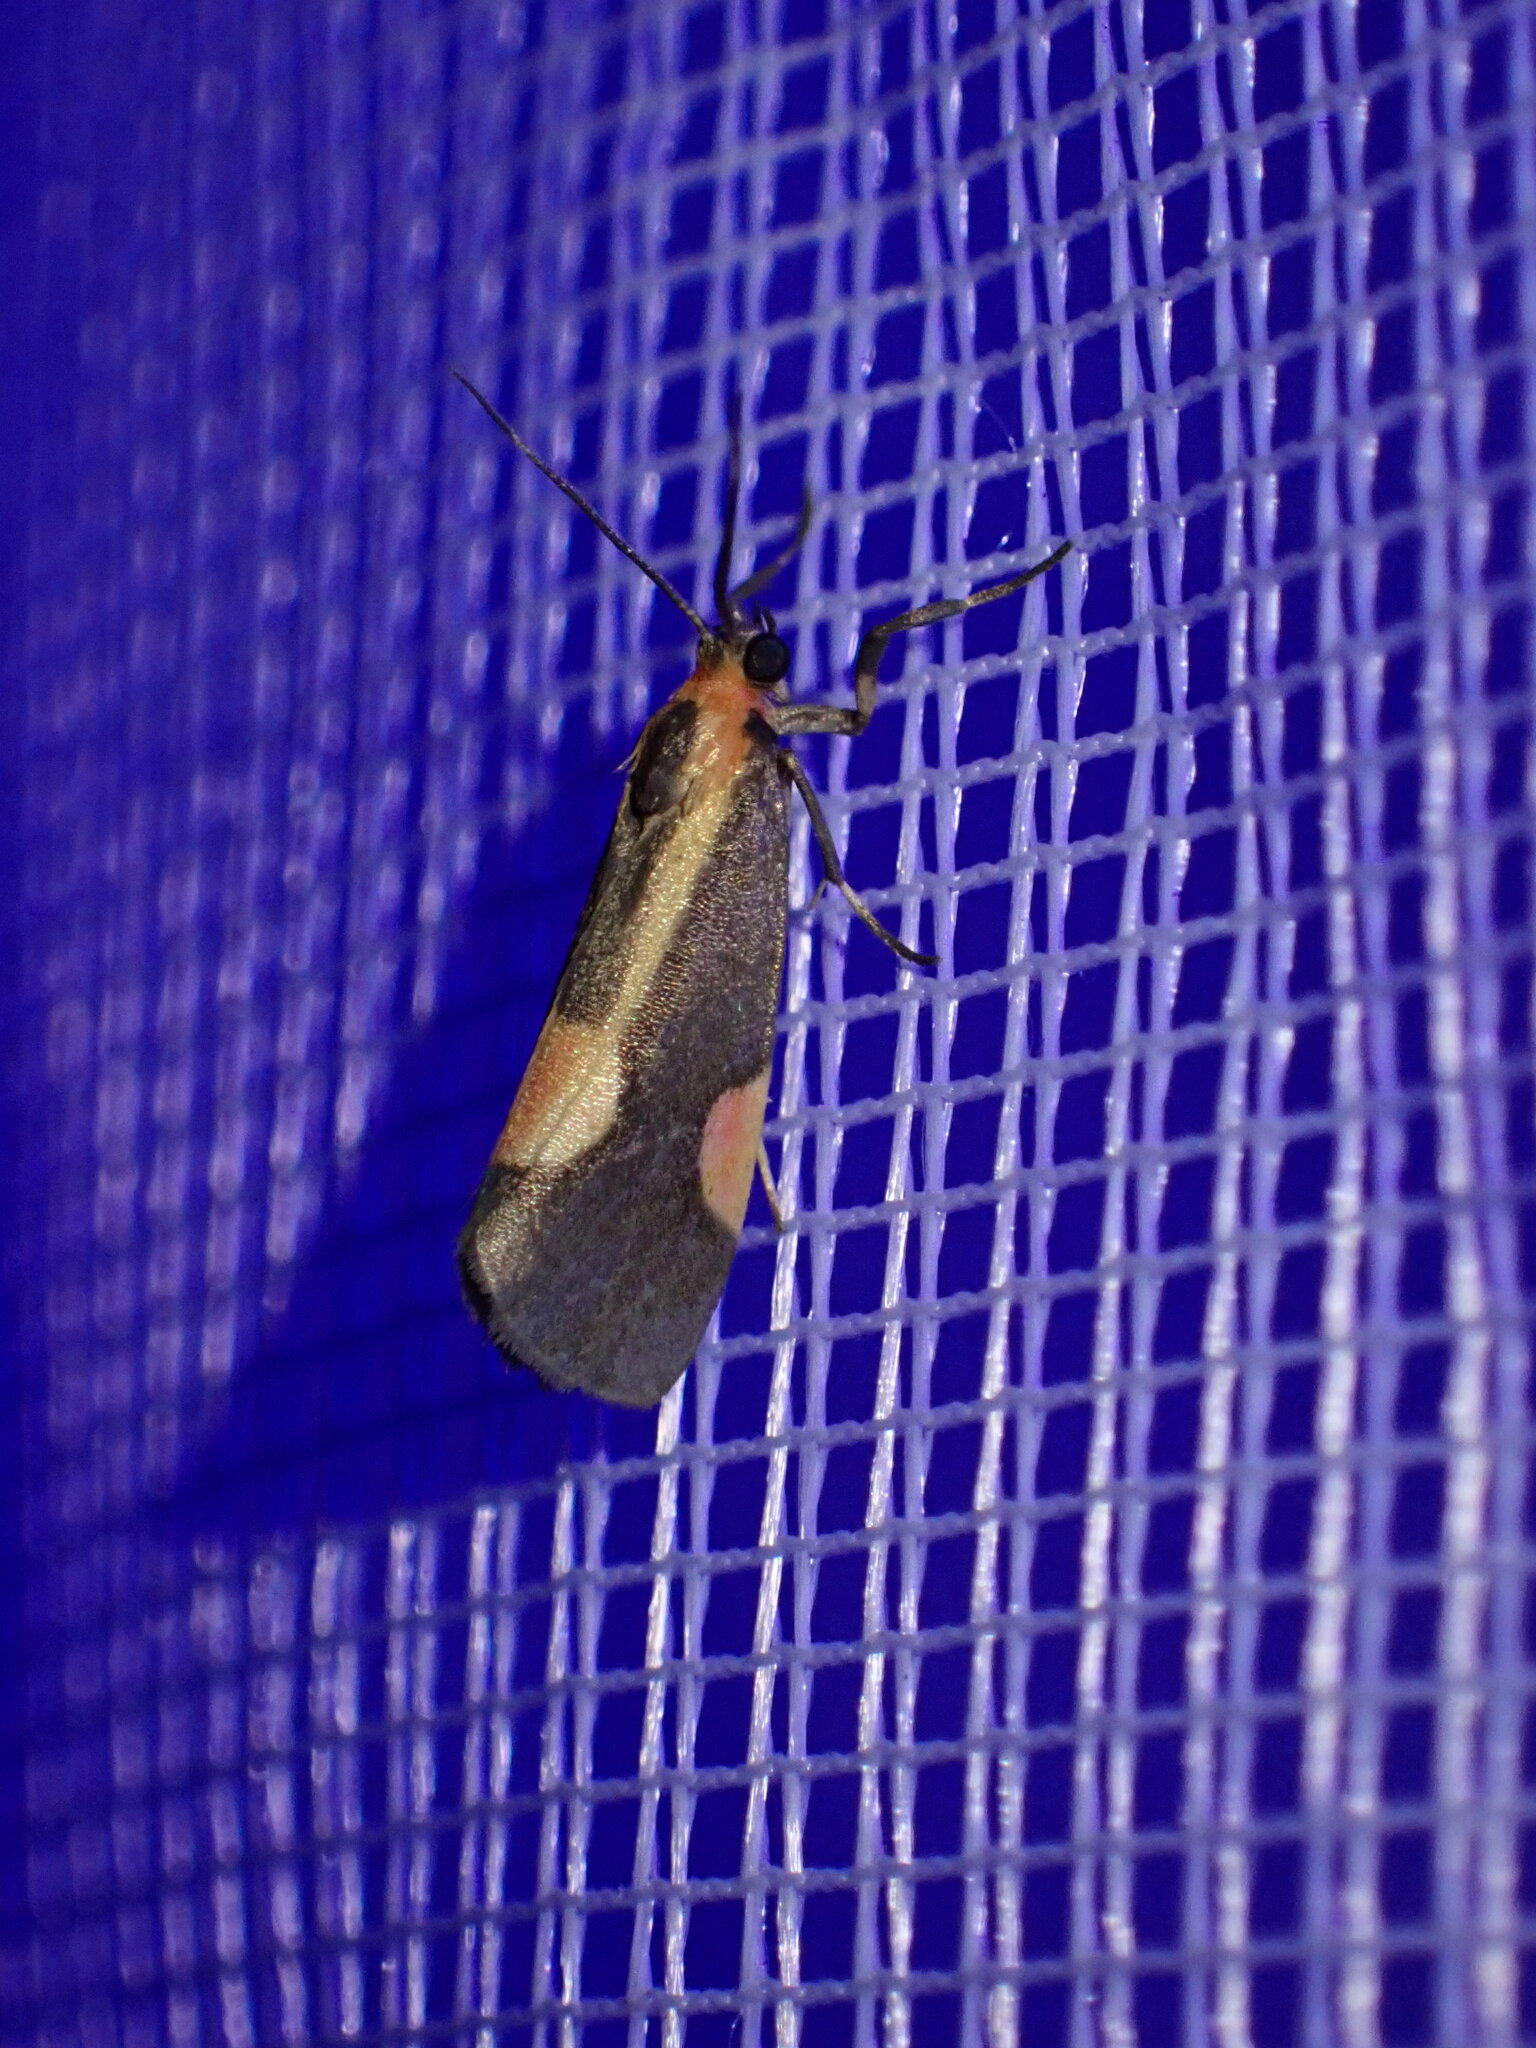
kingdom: Animalia
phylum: Arthropoda
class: Insecta
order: Lepidoptera
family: Erebidae
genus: Cisthene
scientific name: Cisthene packardii
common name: Packard's lichen moth
